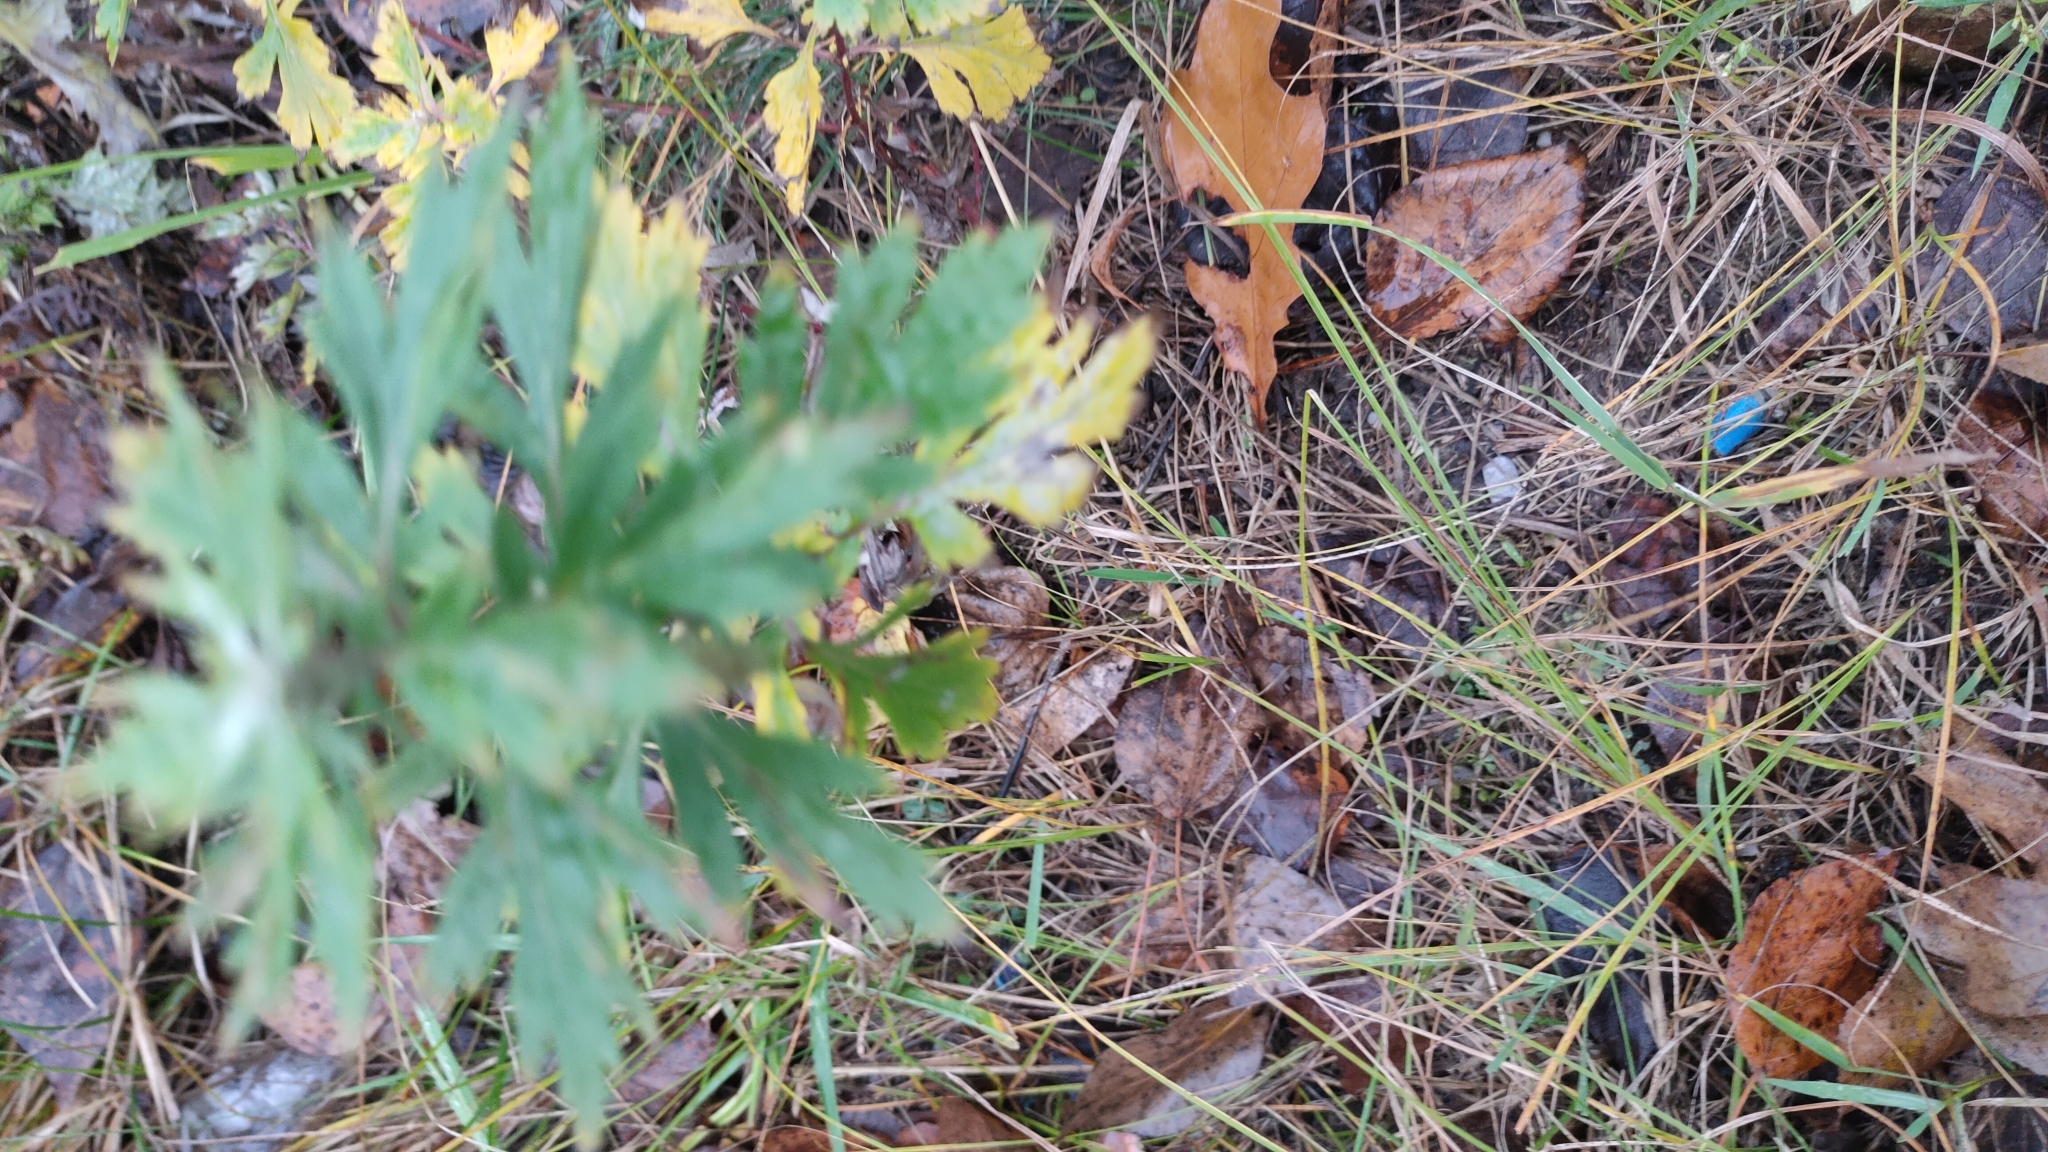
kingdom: Plantae
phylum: Tracheophyta
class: Magnoliopsida
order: Asterales
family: Asteraceae
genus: Artemisia
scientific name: Artemisia vulgaris
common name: Mugwort
